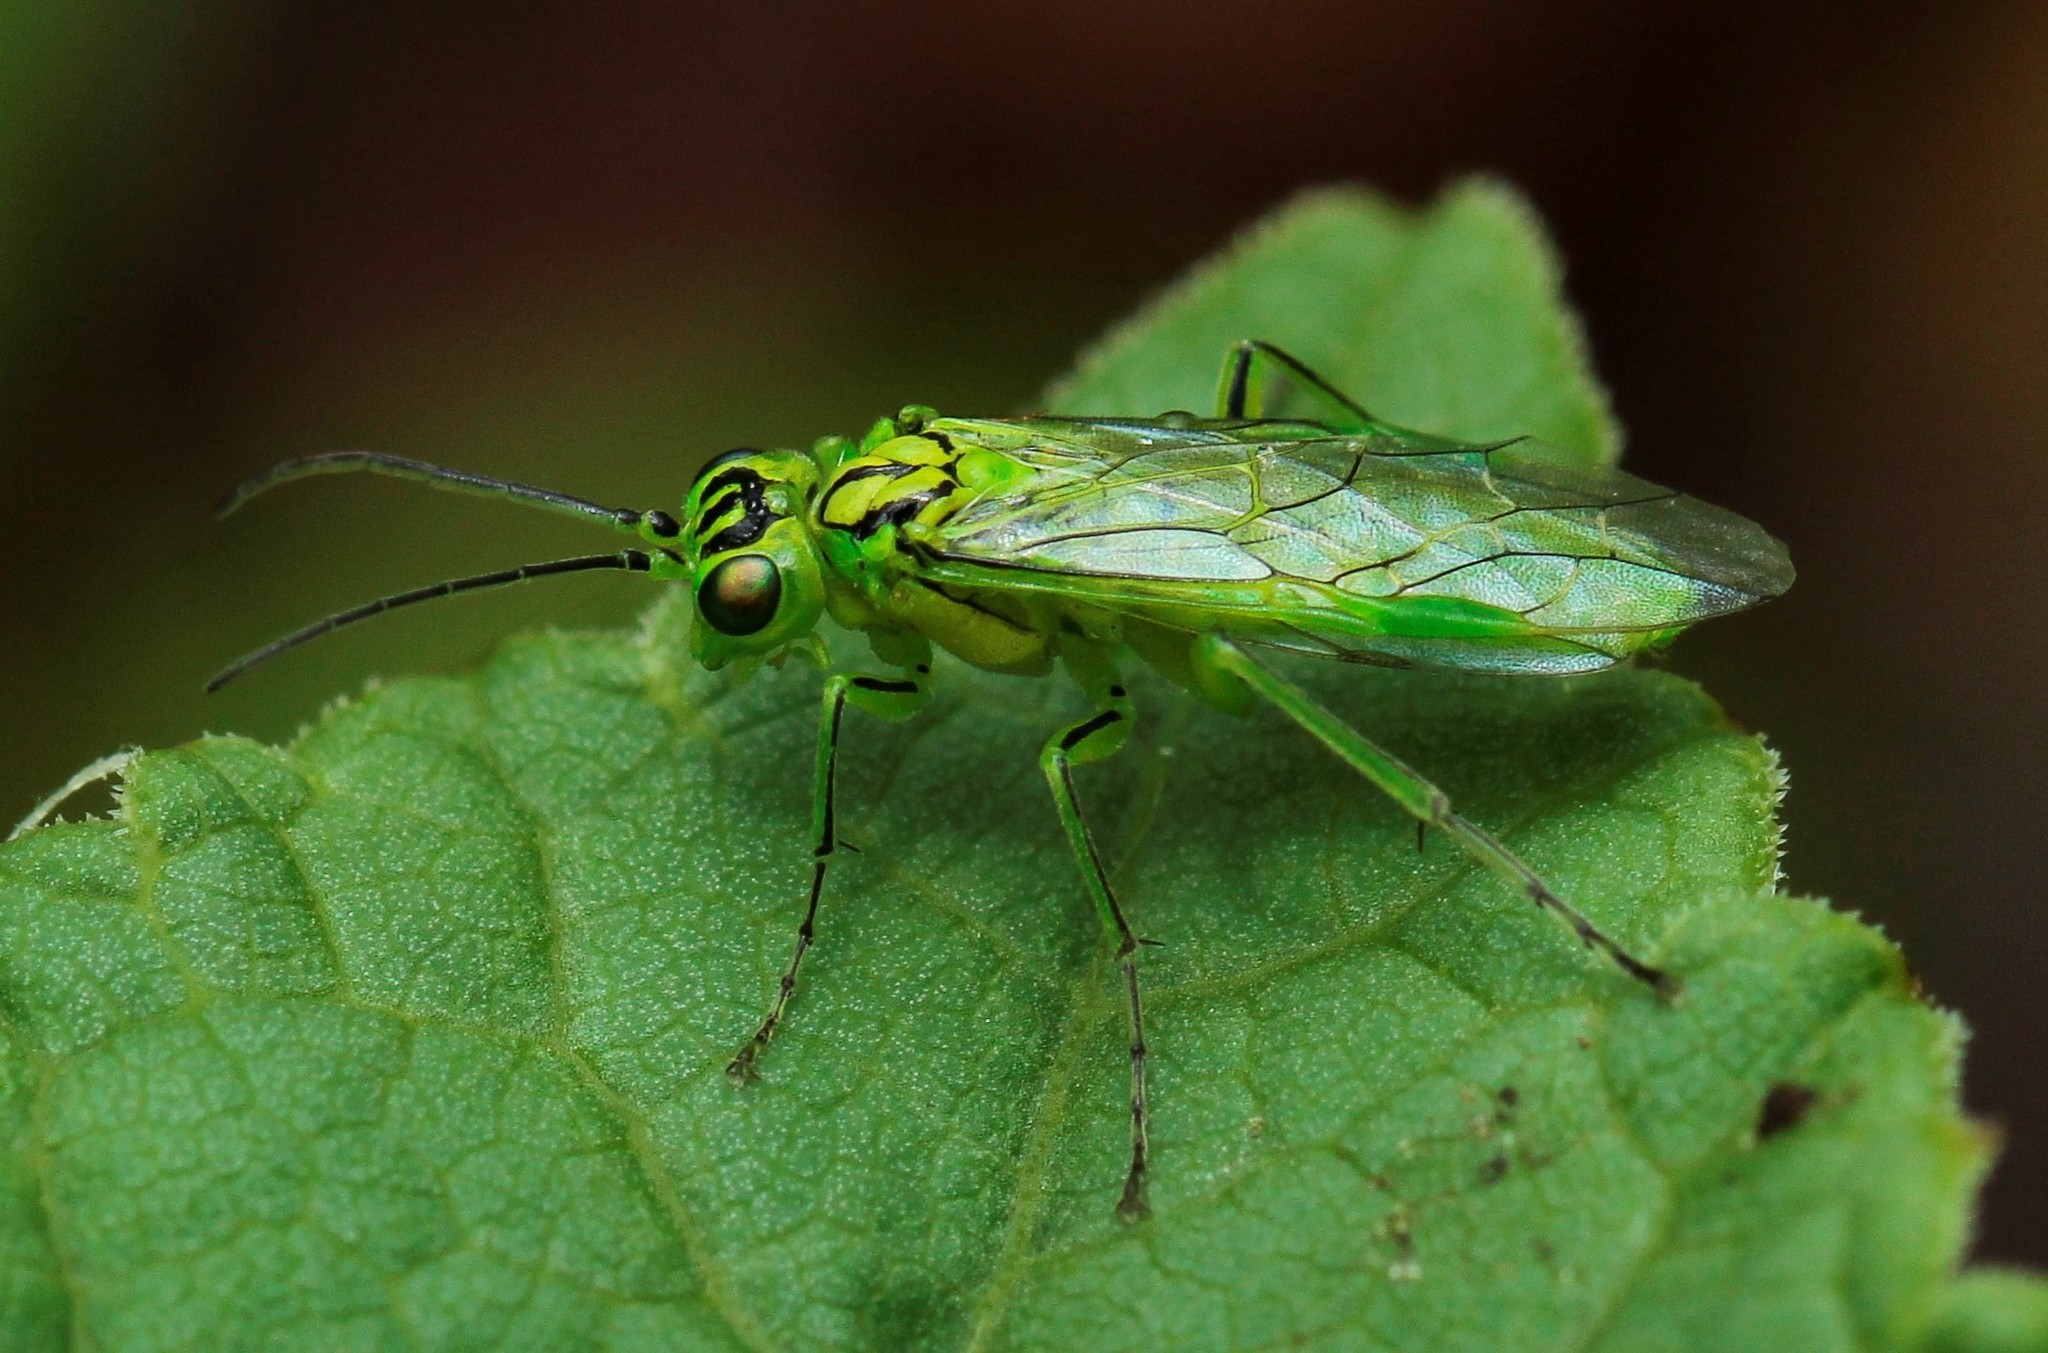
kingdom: Animalia
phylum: Arthropoda
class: Insecta
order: Hymenoptera
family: Tenthredinidae
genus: Rhogogaster
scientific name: Rhogogaster punctulata
